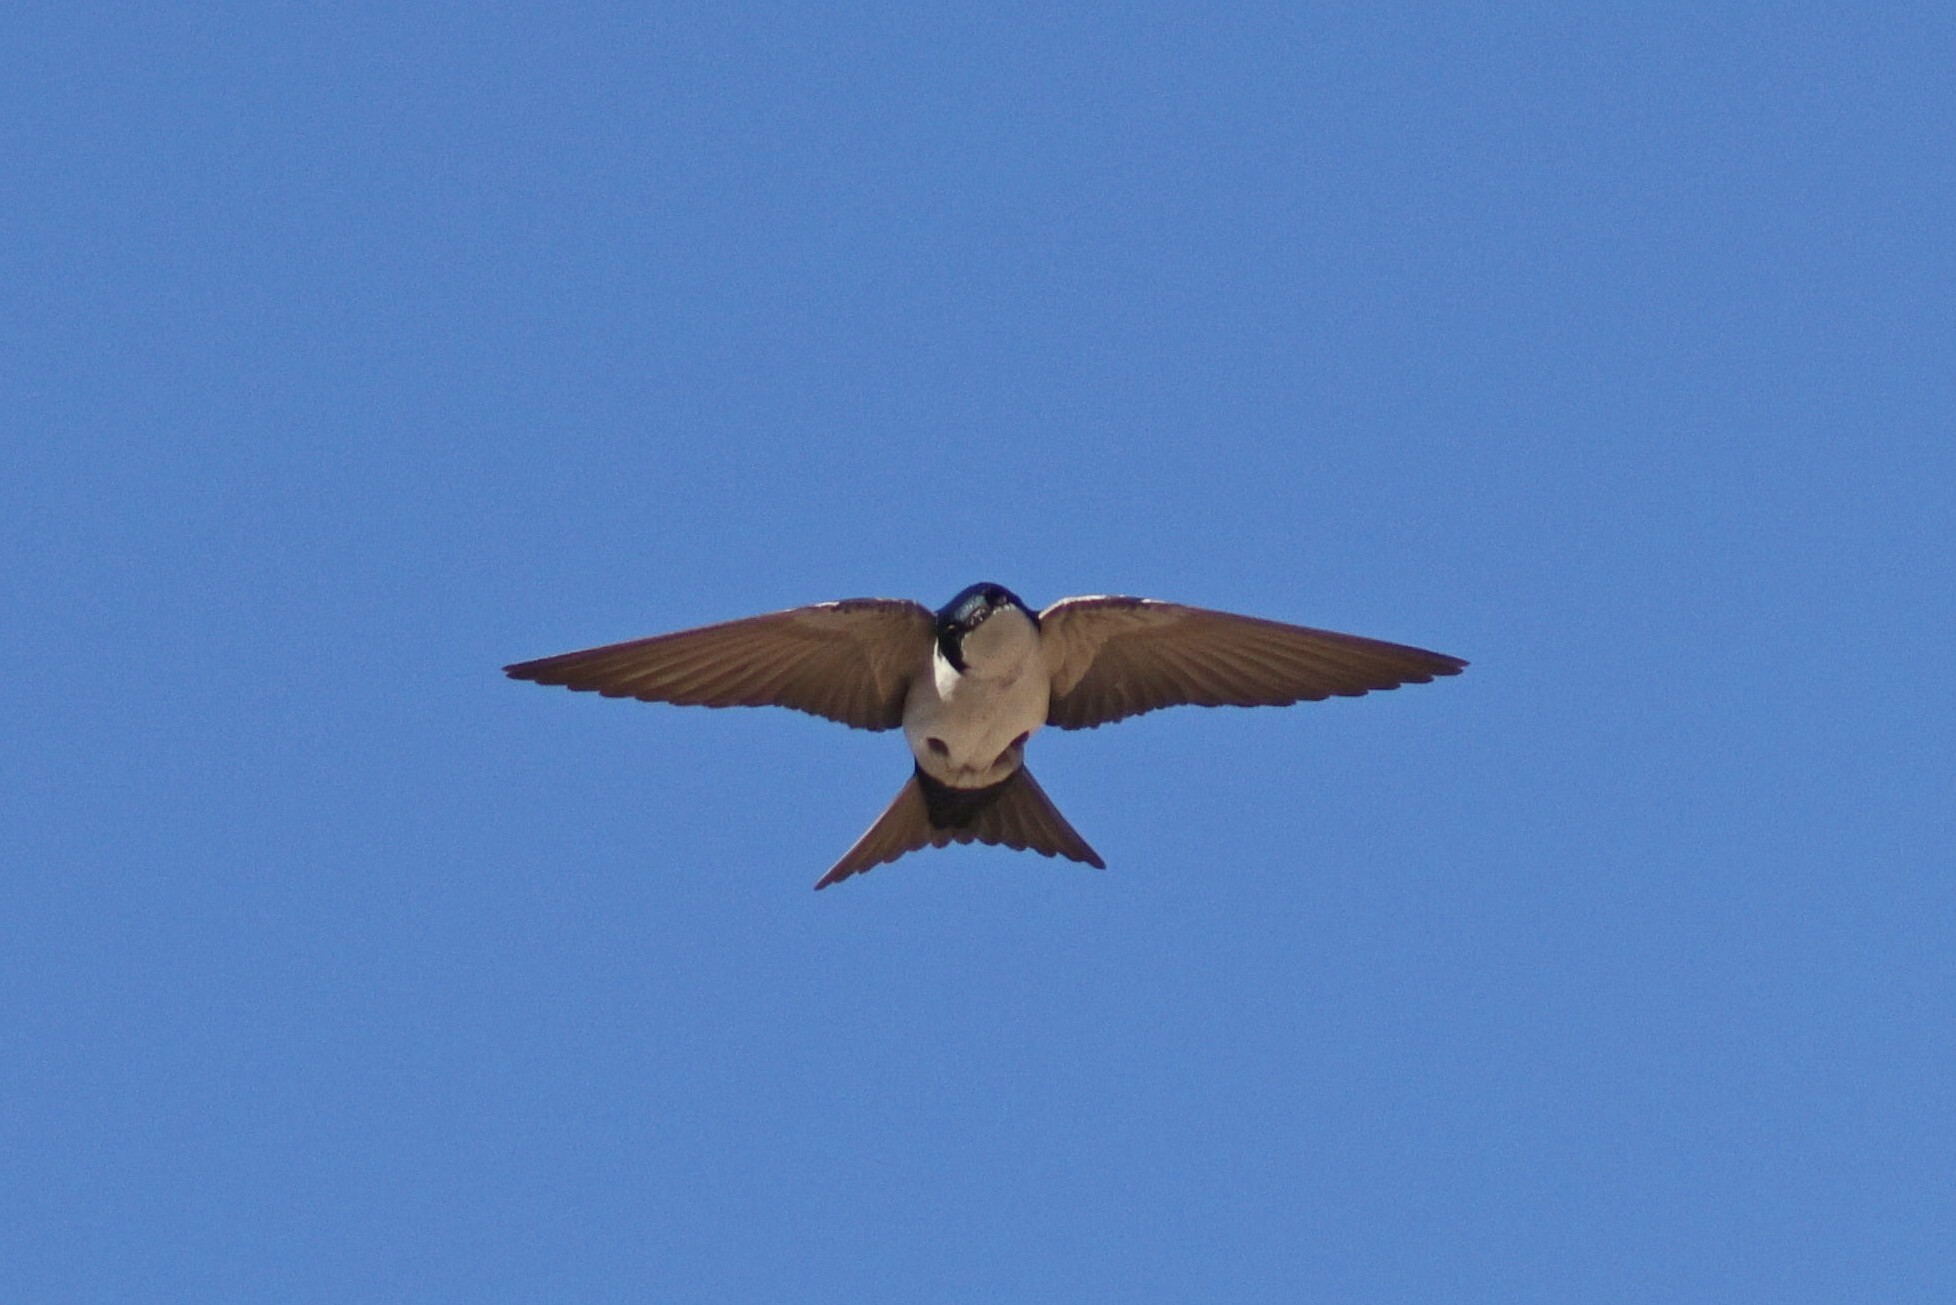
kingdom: Animalia
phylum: Chordata
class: Aves
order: Passeriformes
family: Hirundinidae
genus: Notiochelidon
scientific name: Notiochelidon cyanoleuca
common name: Blue-and-white swallow
